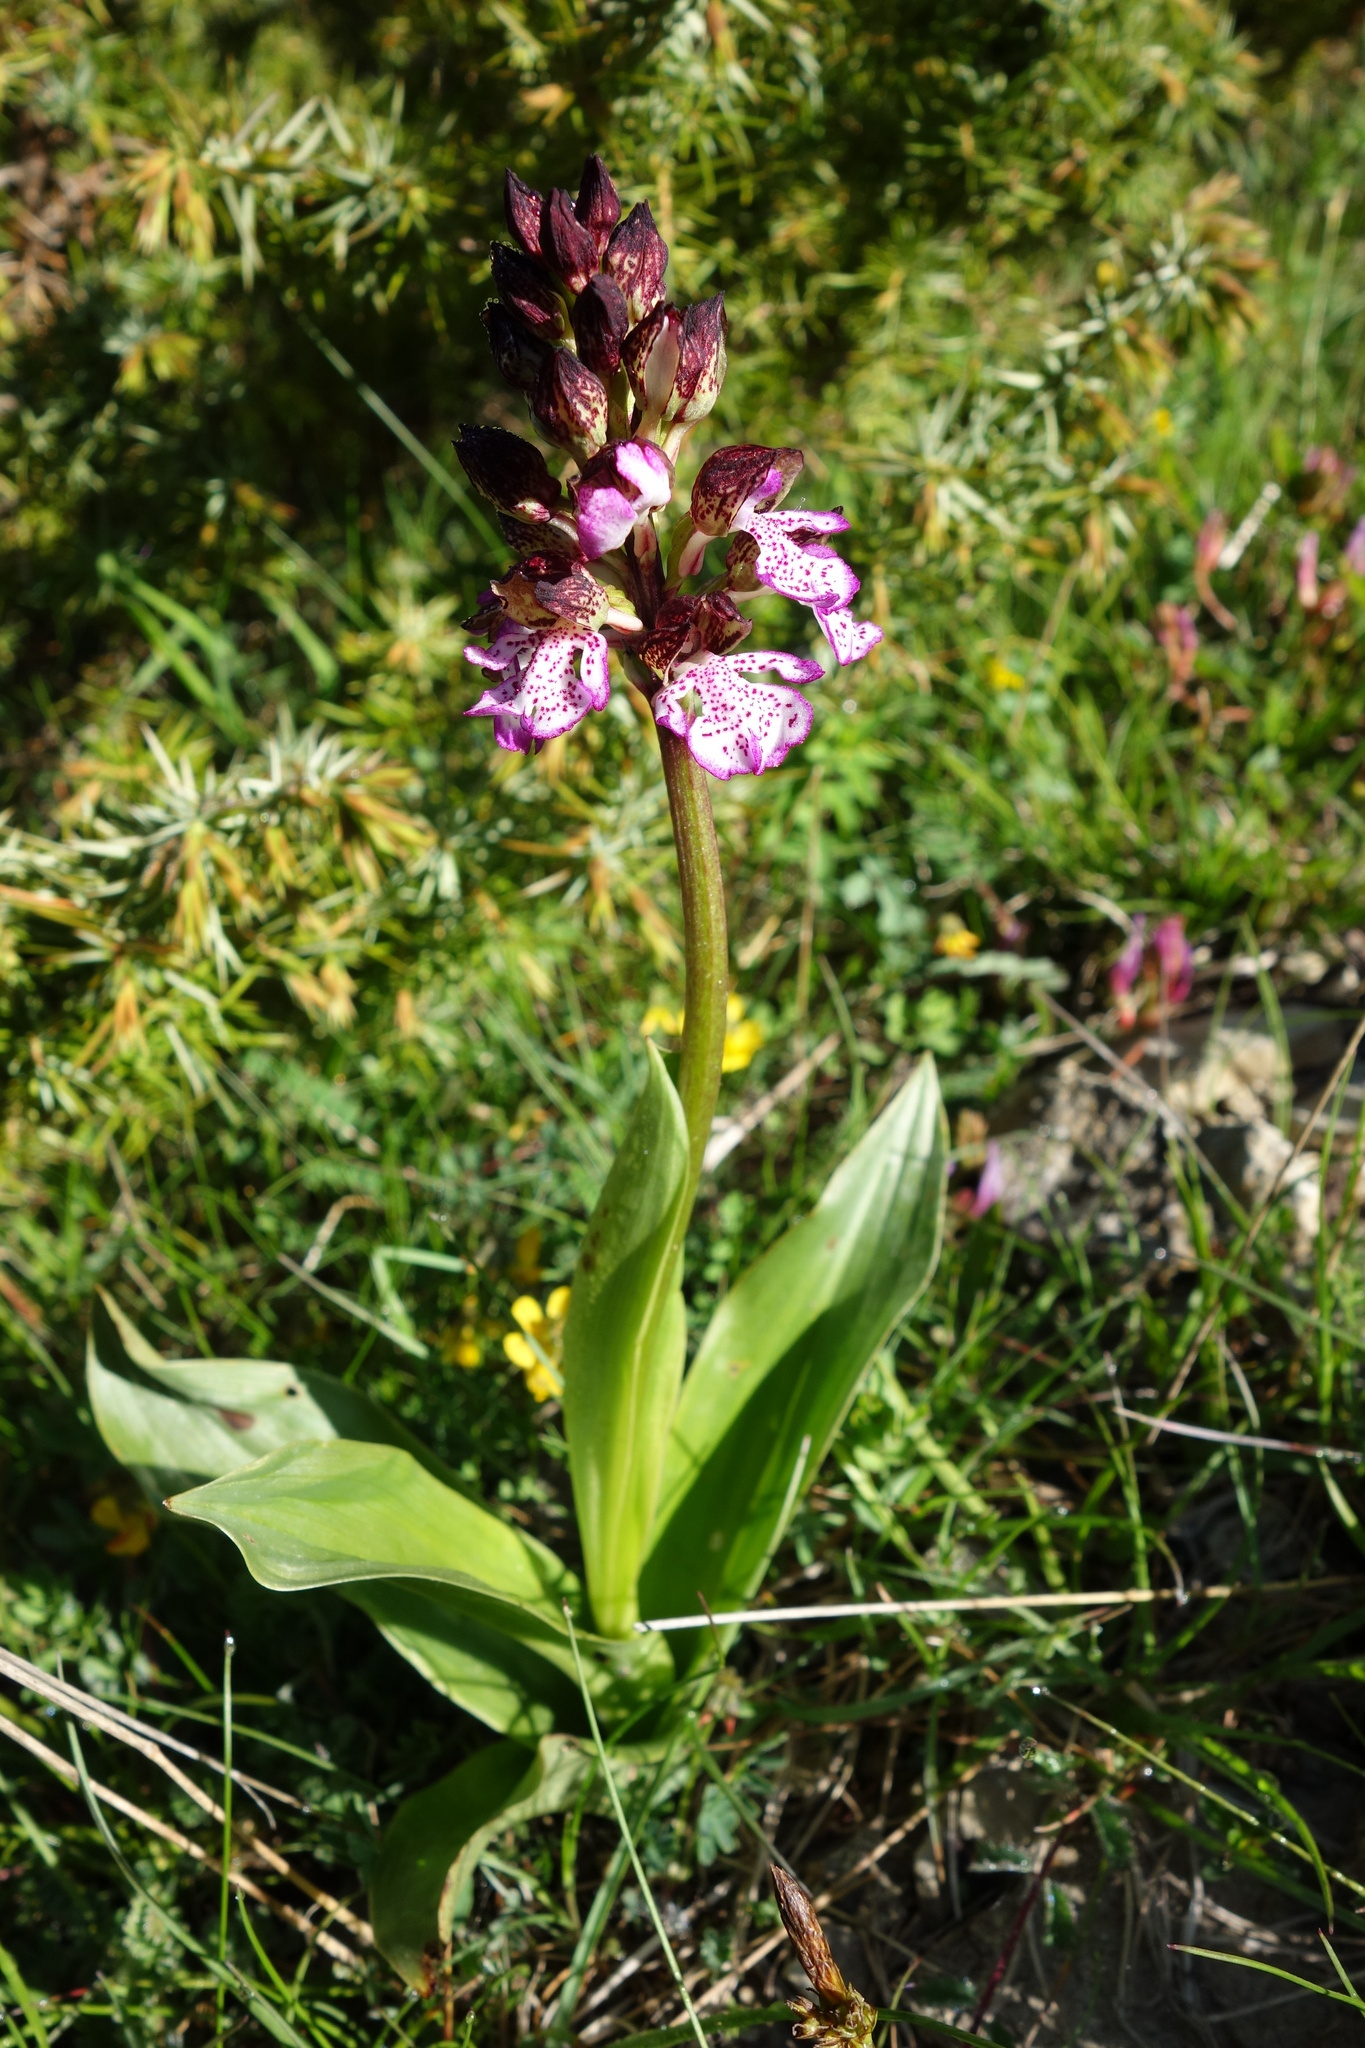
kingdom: Plantae
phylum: Tracheophyta
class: Liliopsida
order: Asparagales
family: Orchidaceae
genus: Orchis
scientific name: Orchis purpurea
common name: Lady orchid
